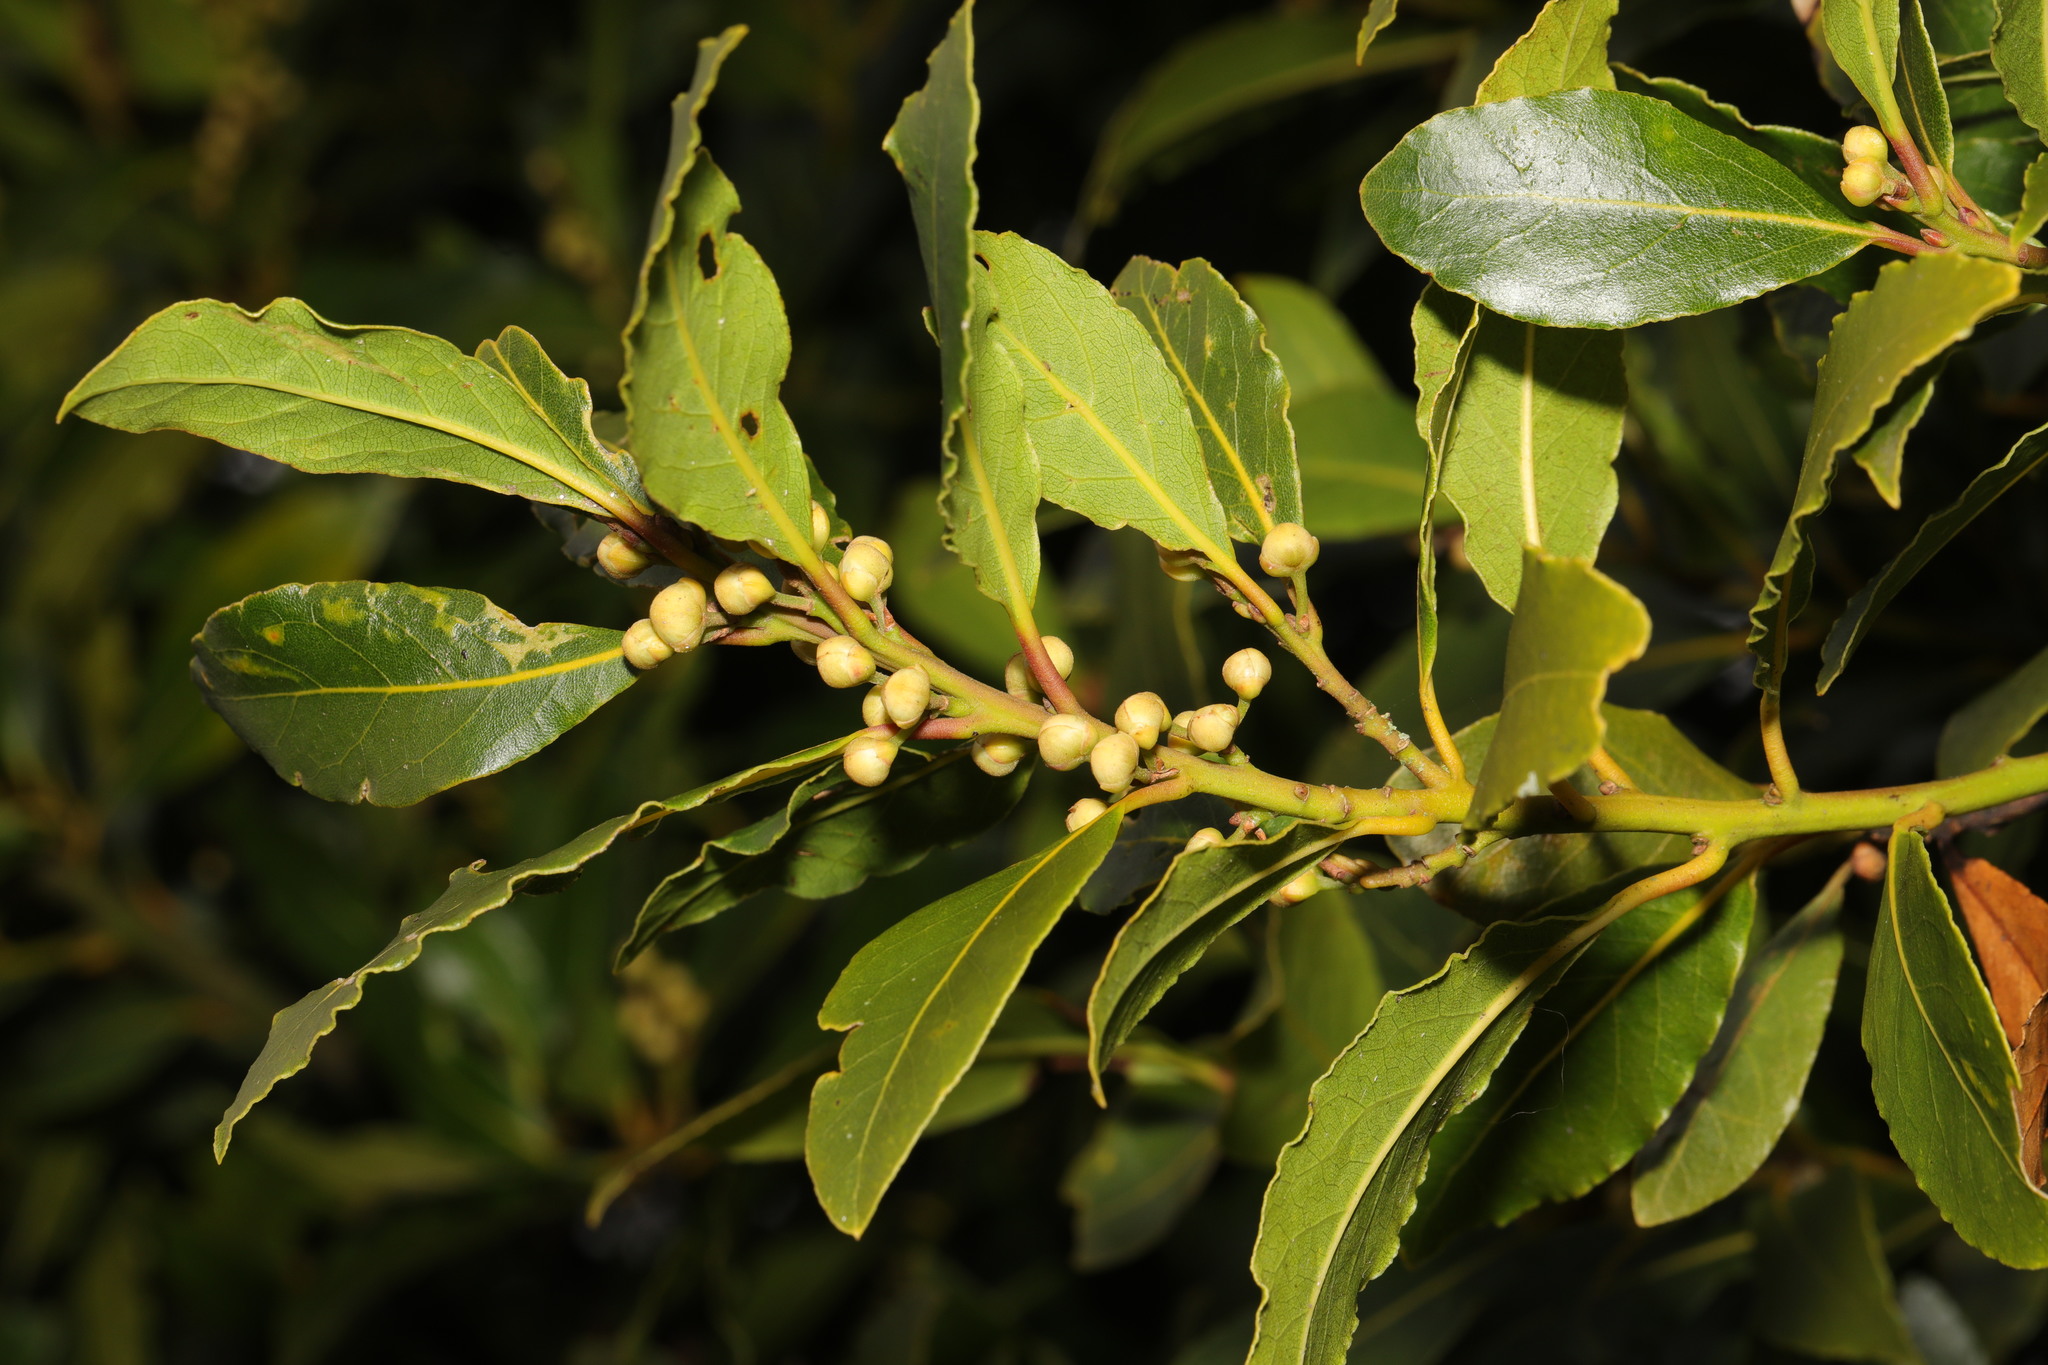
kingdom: Plantae
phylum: Tracheophyta
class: Magnoliopsida
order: Laurales
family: Lauraceae
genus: Laurus
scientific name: Laurus nobilis
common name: Bay
